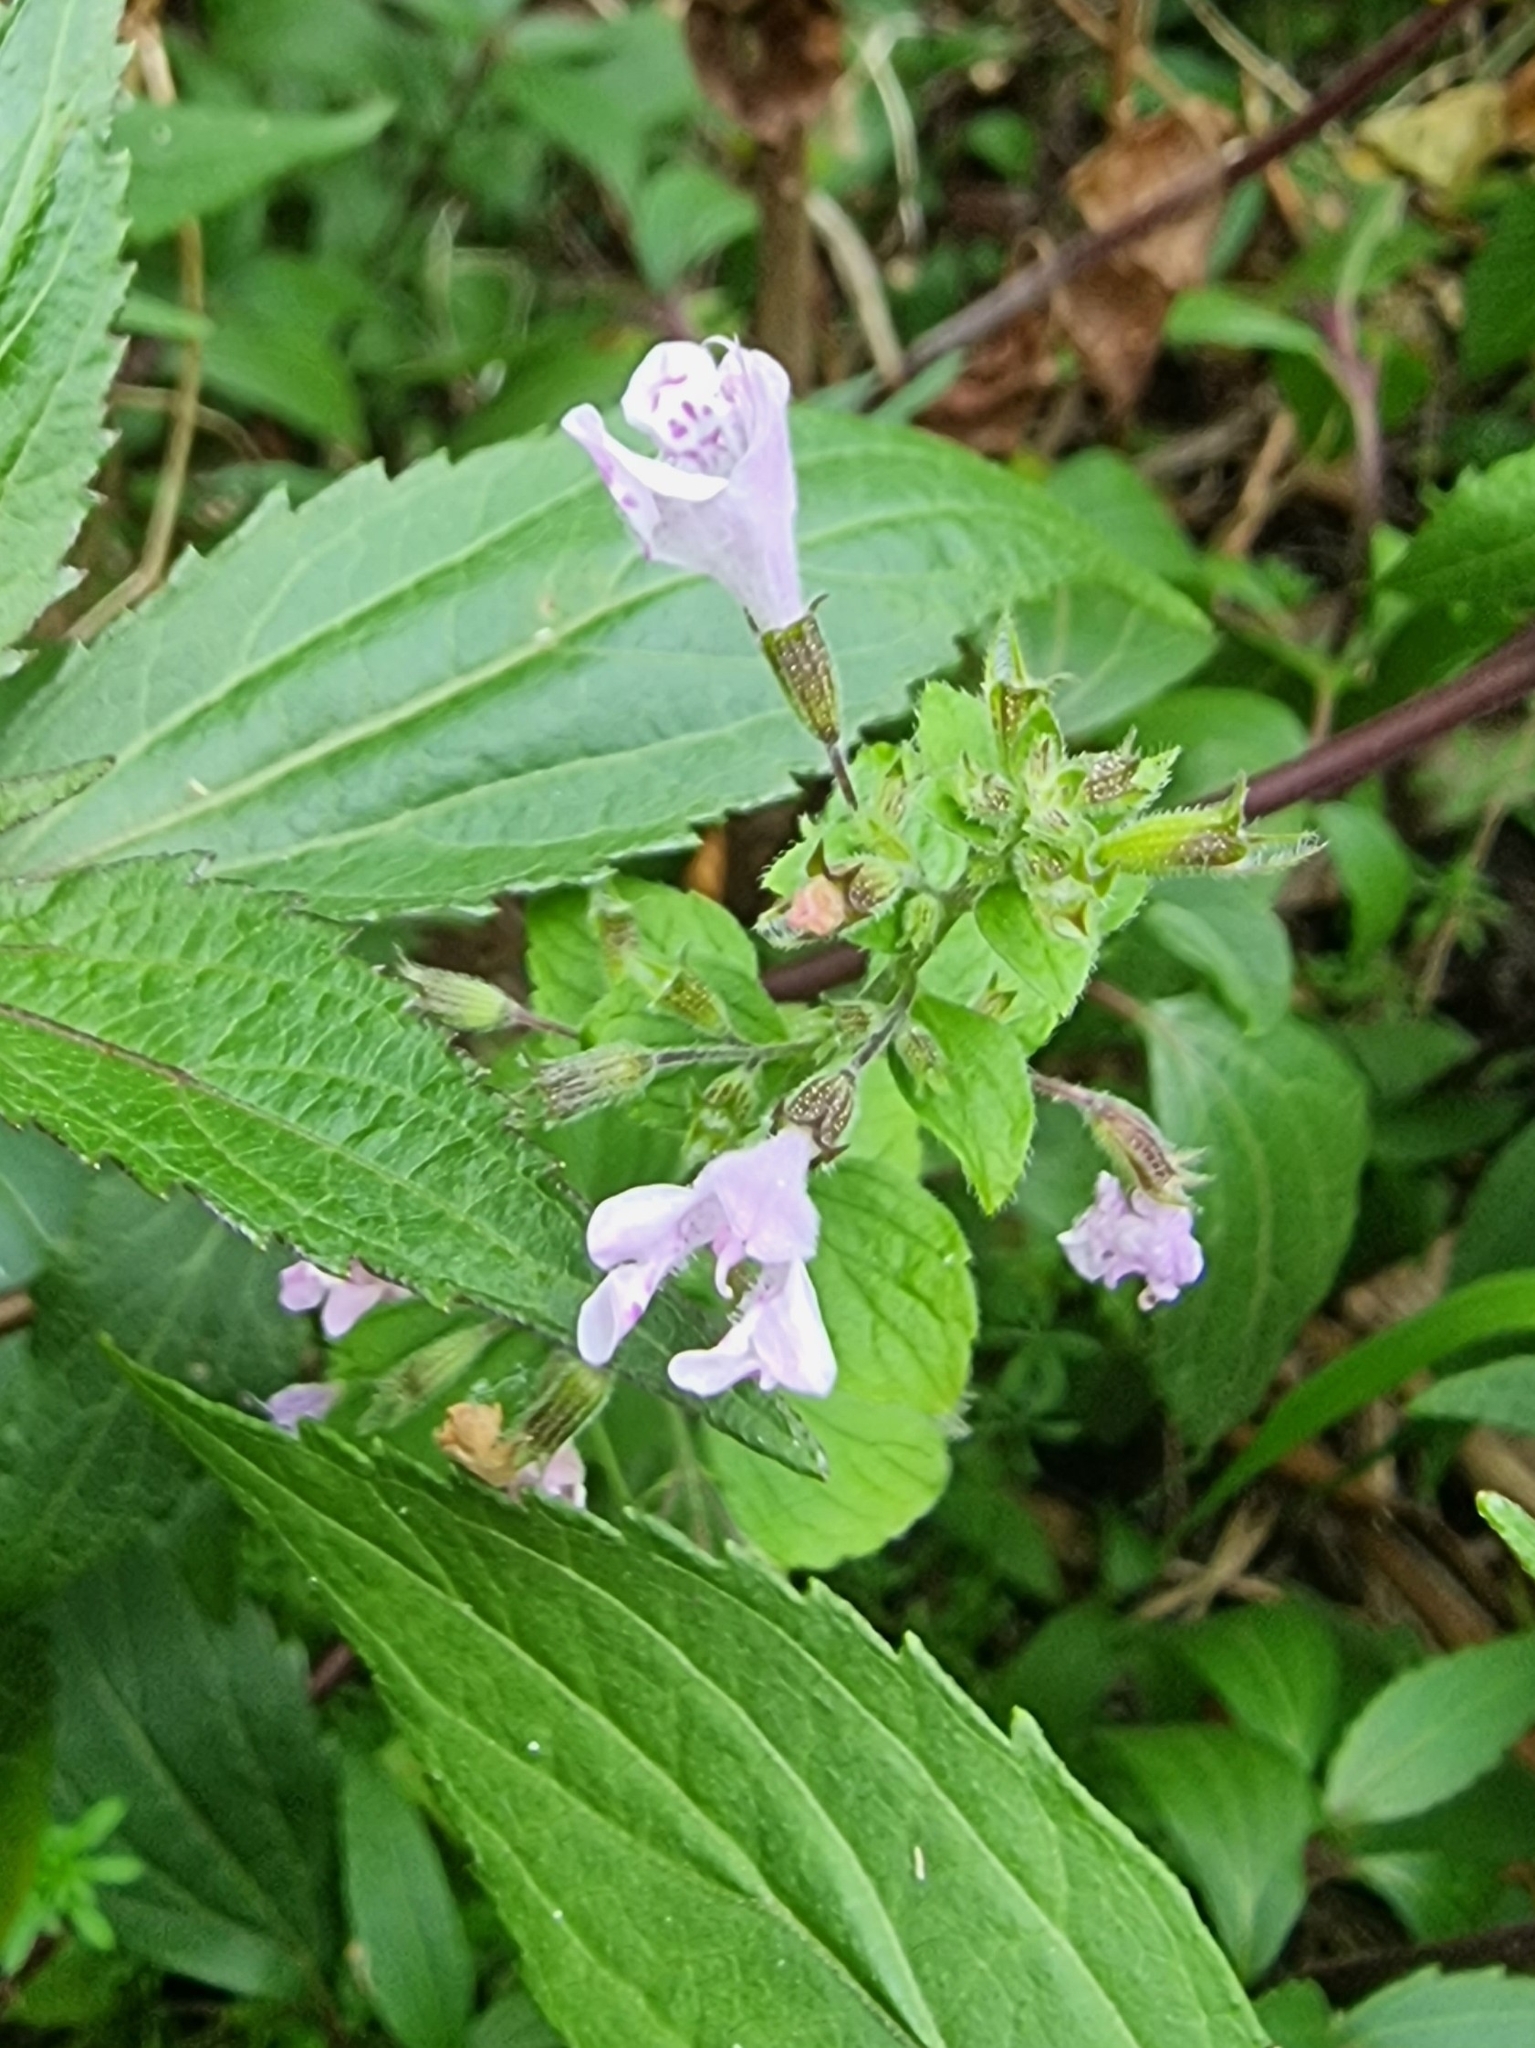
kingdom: Plantae
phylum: Tracheophyta
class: Magnoliopsida
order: Lamiales
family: Lamiaceae
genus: Clinopodium
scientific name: Clinopodium menthifolium
